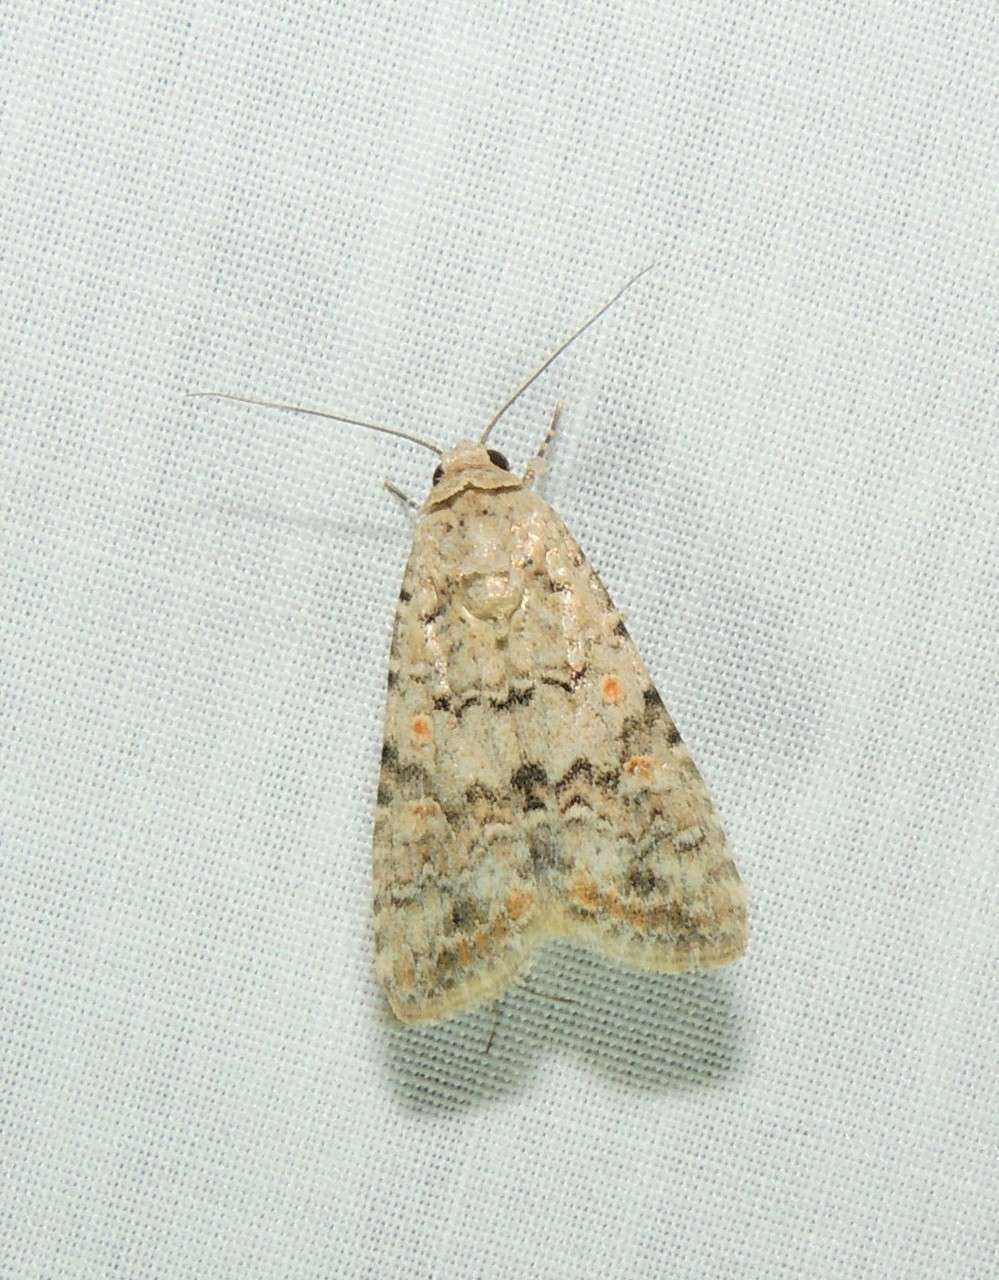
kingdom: Animalia
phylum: Arthropoda
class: Insecta
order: Lepidoptera
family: Noctuidae
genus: Spodoptera
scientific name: Spodoptera exigua
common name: Beet armyworm
